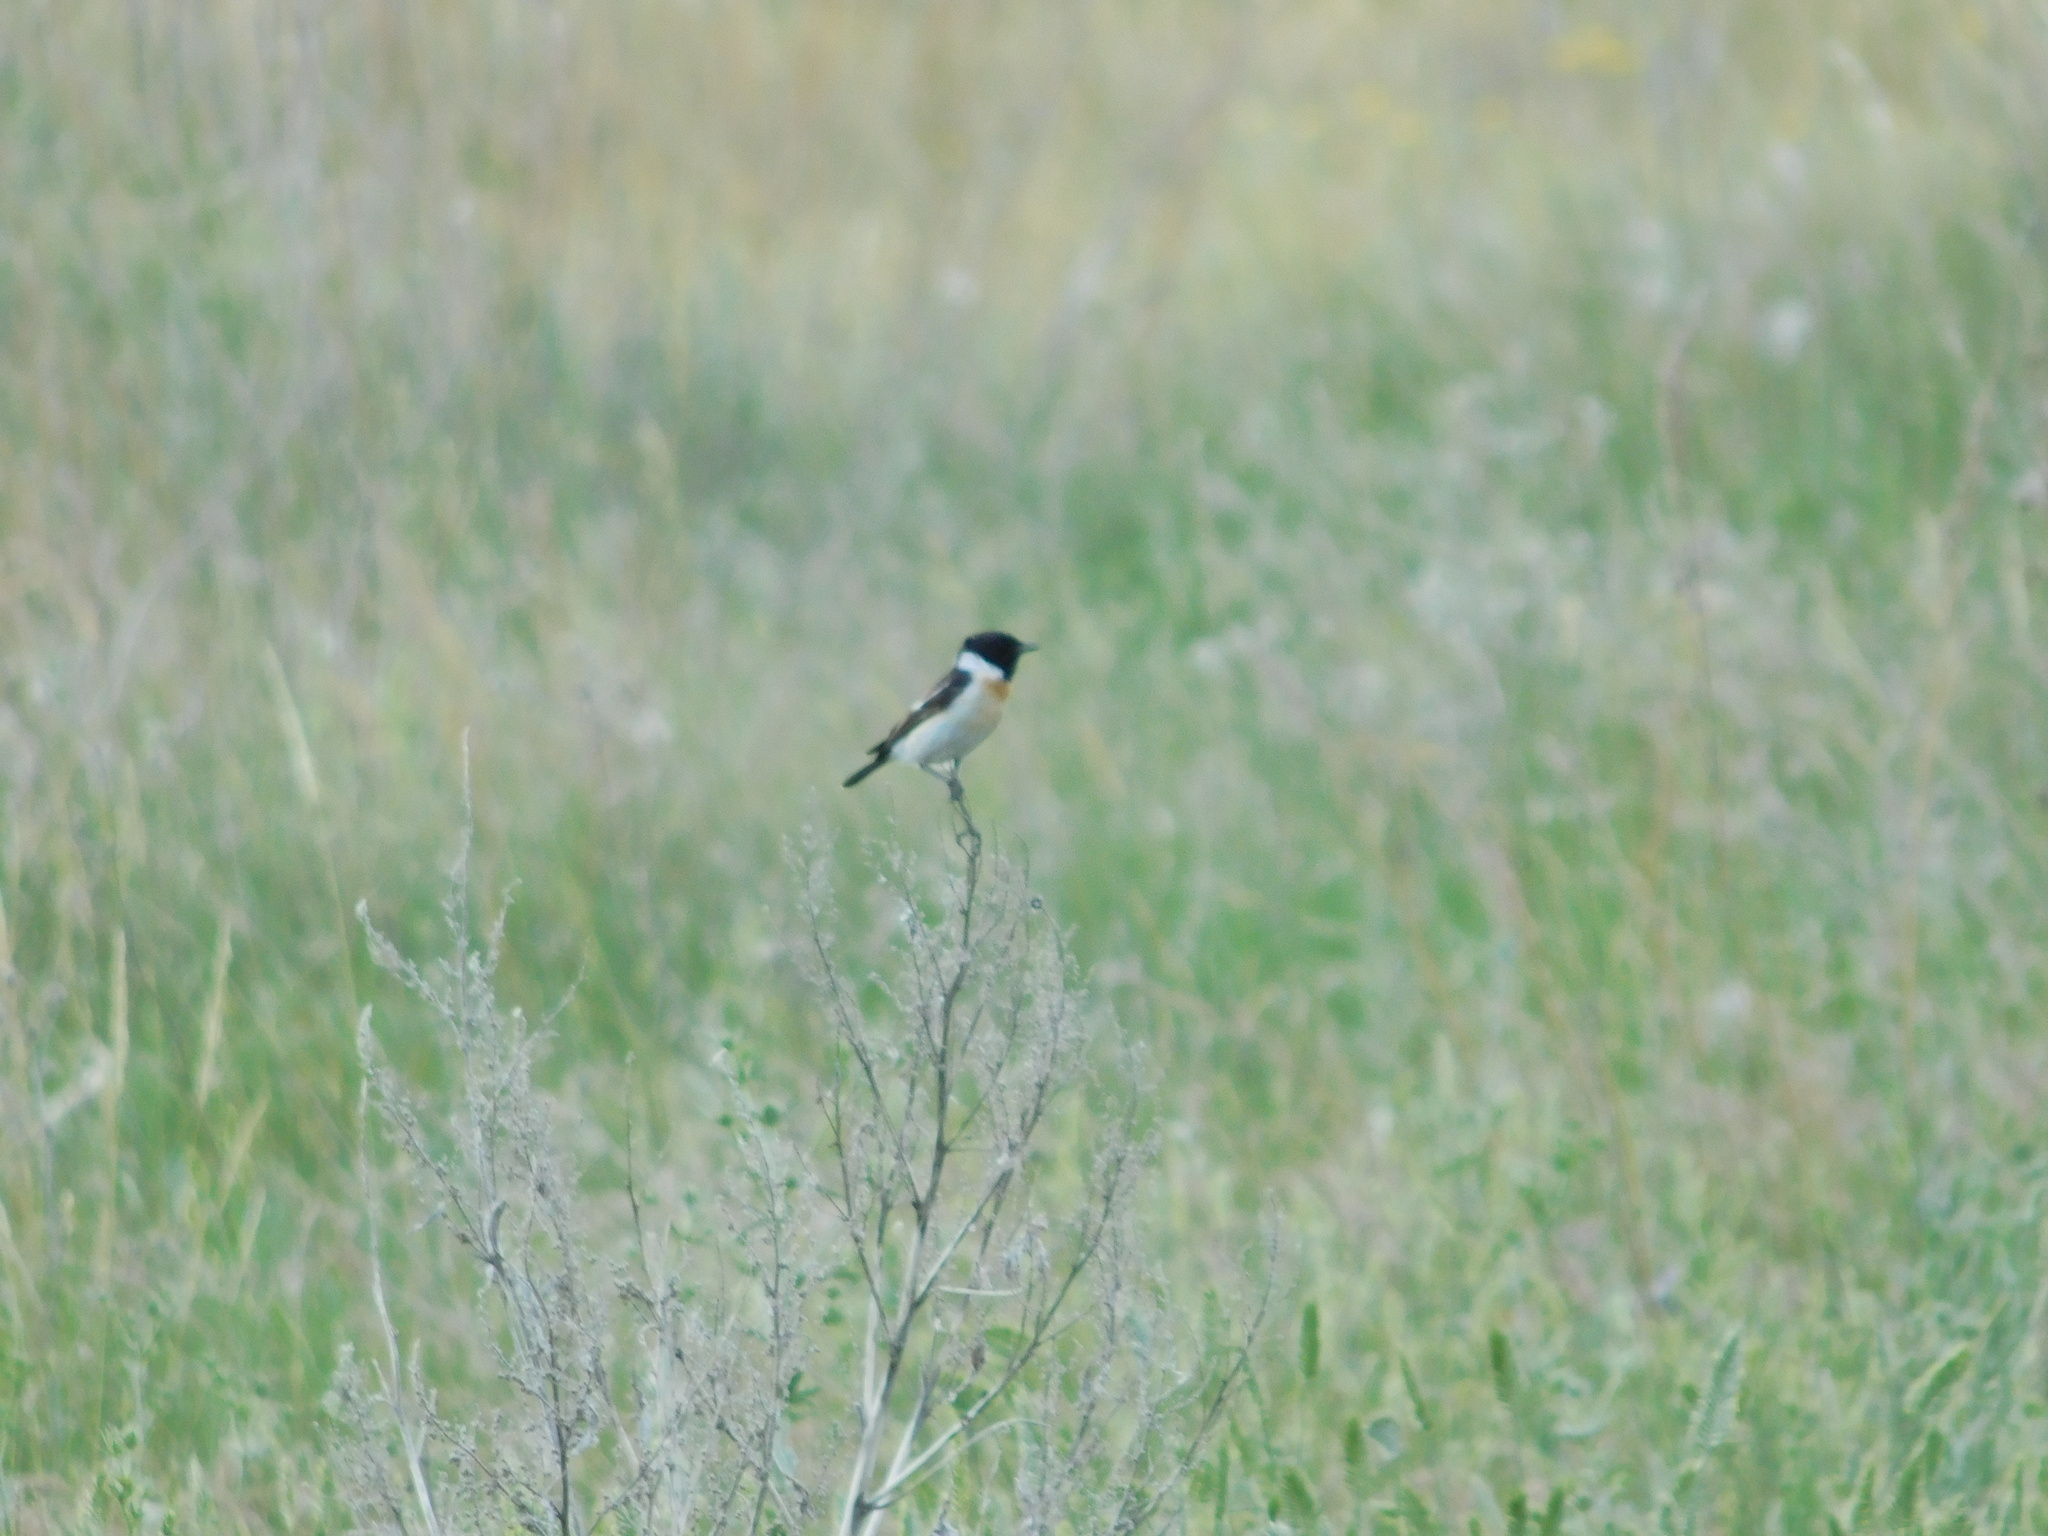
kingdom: Animalia
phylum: Chordata
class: Aves
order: Passeriformes
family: Muscicapidae
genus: Saxicola
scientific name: Saxicola maurus
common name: Siberian stonechat
